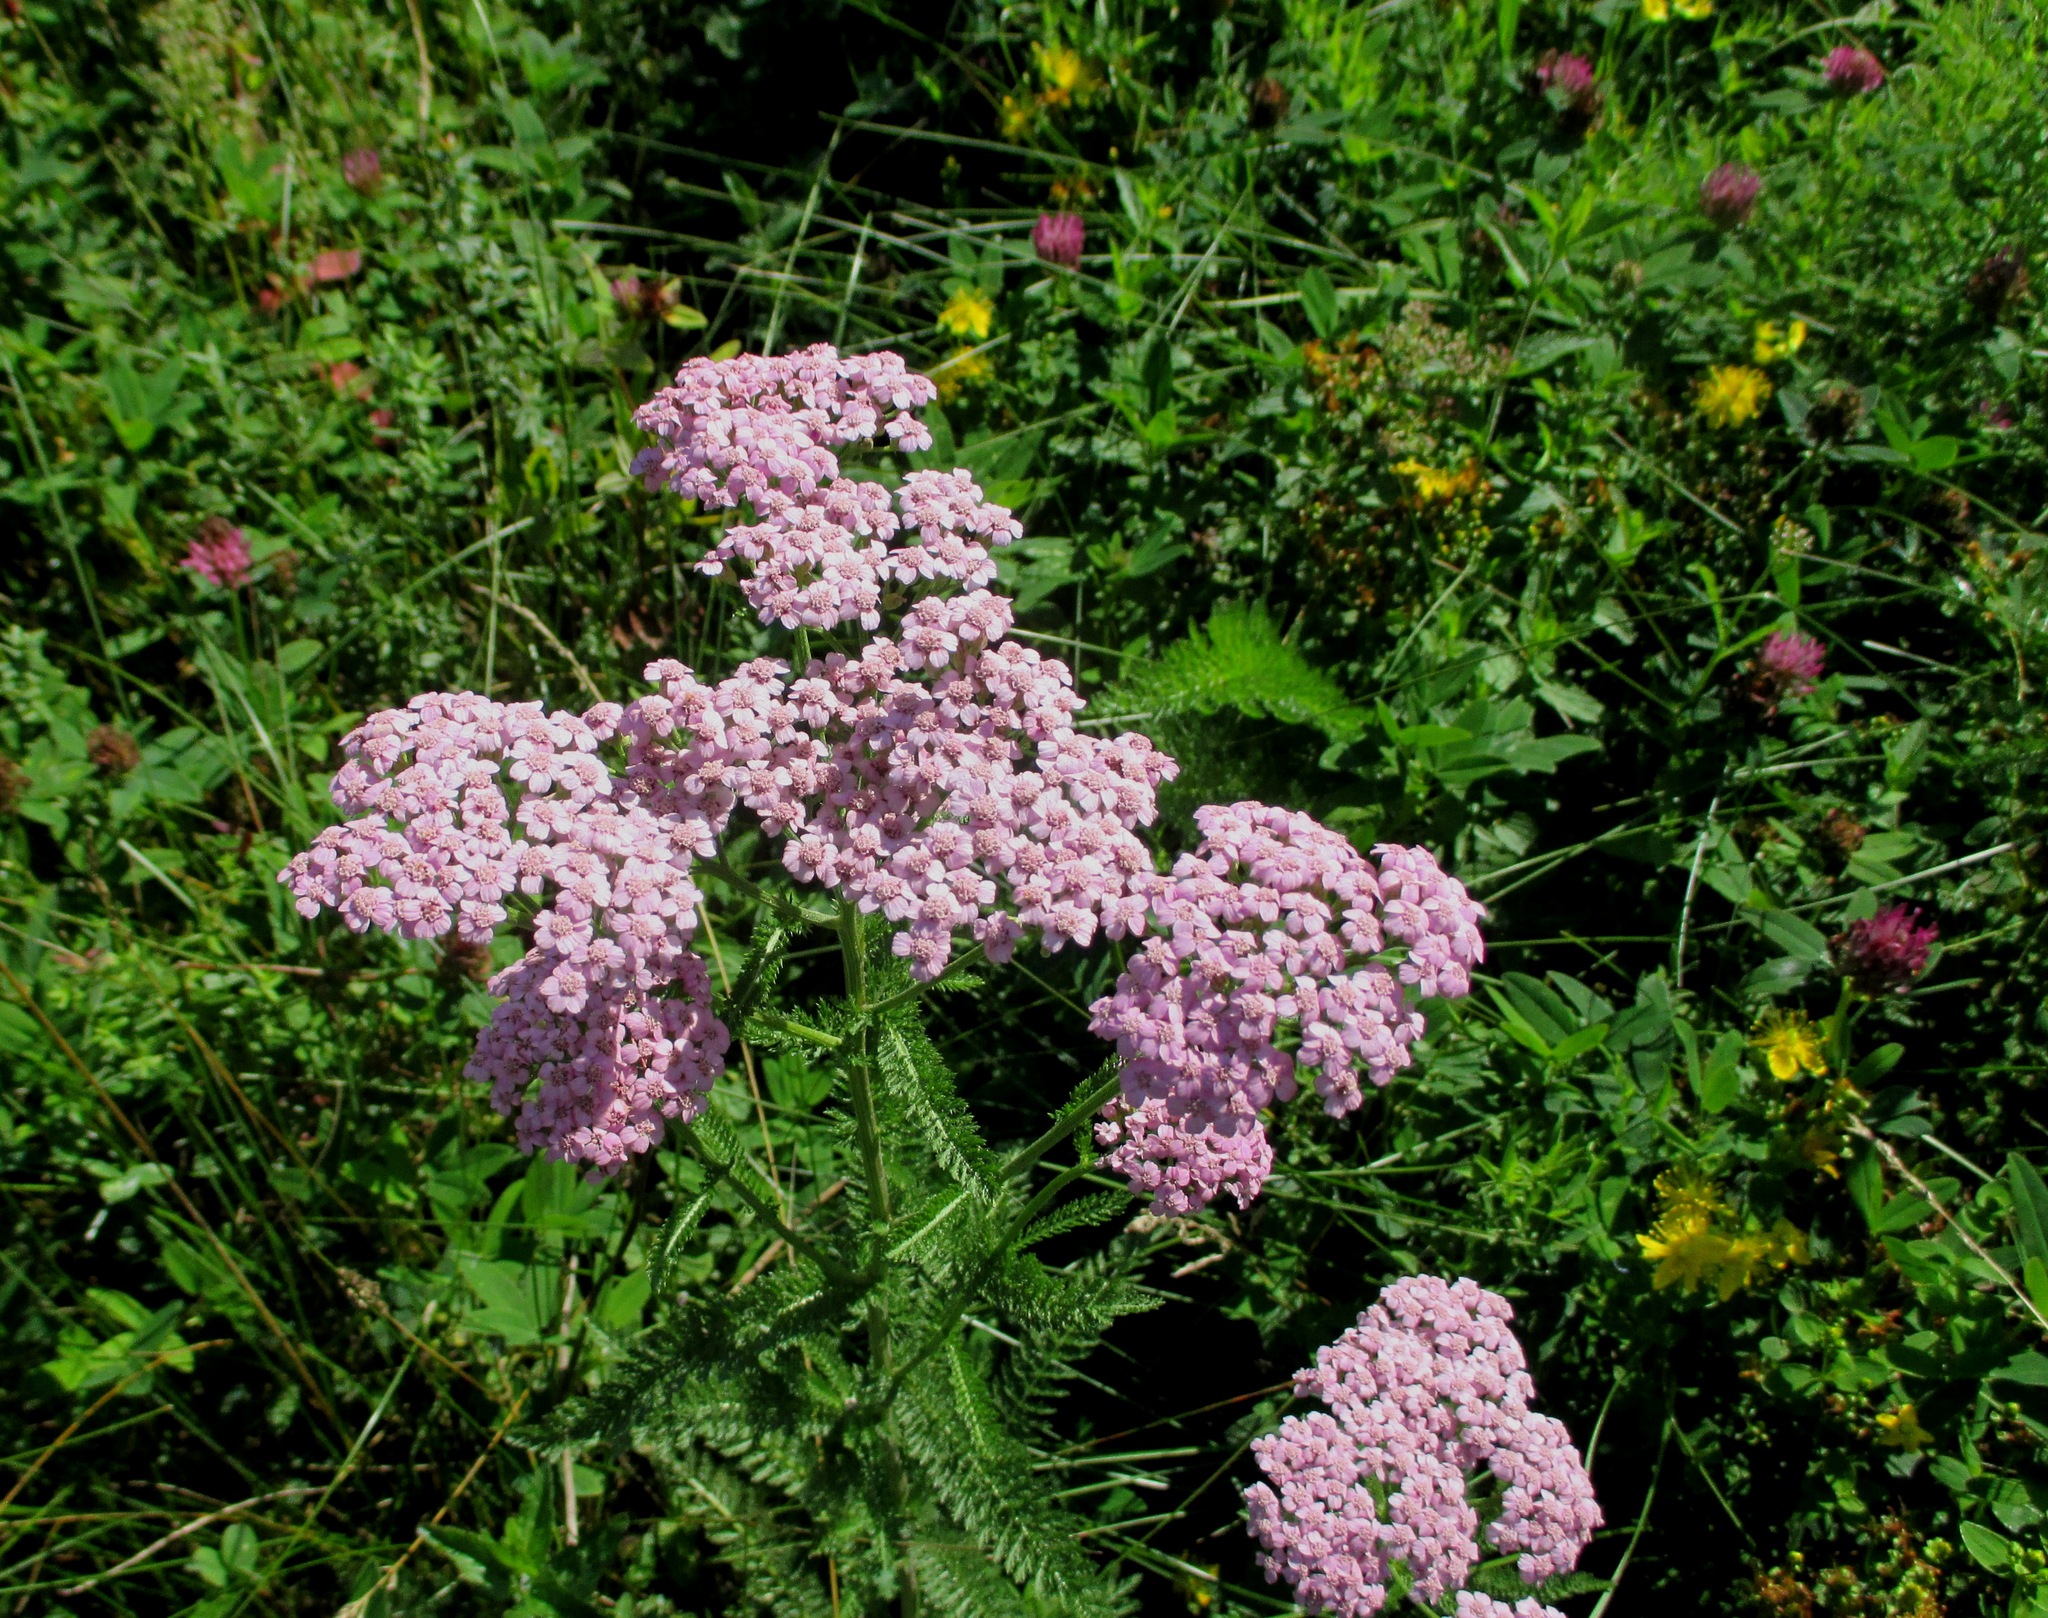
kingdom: Plantae
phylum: Tracheophyta
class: Magnoliopsida
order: Asterales
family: Asteraceae
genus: Achillea
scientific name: Achillea asiatica
